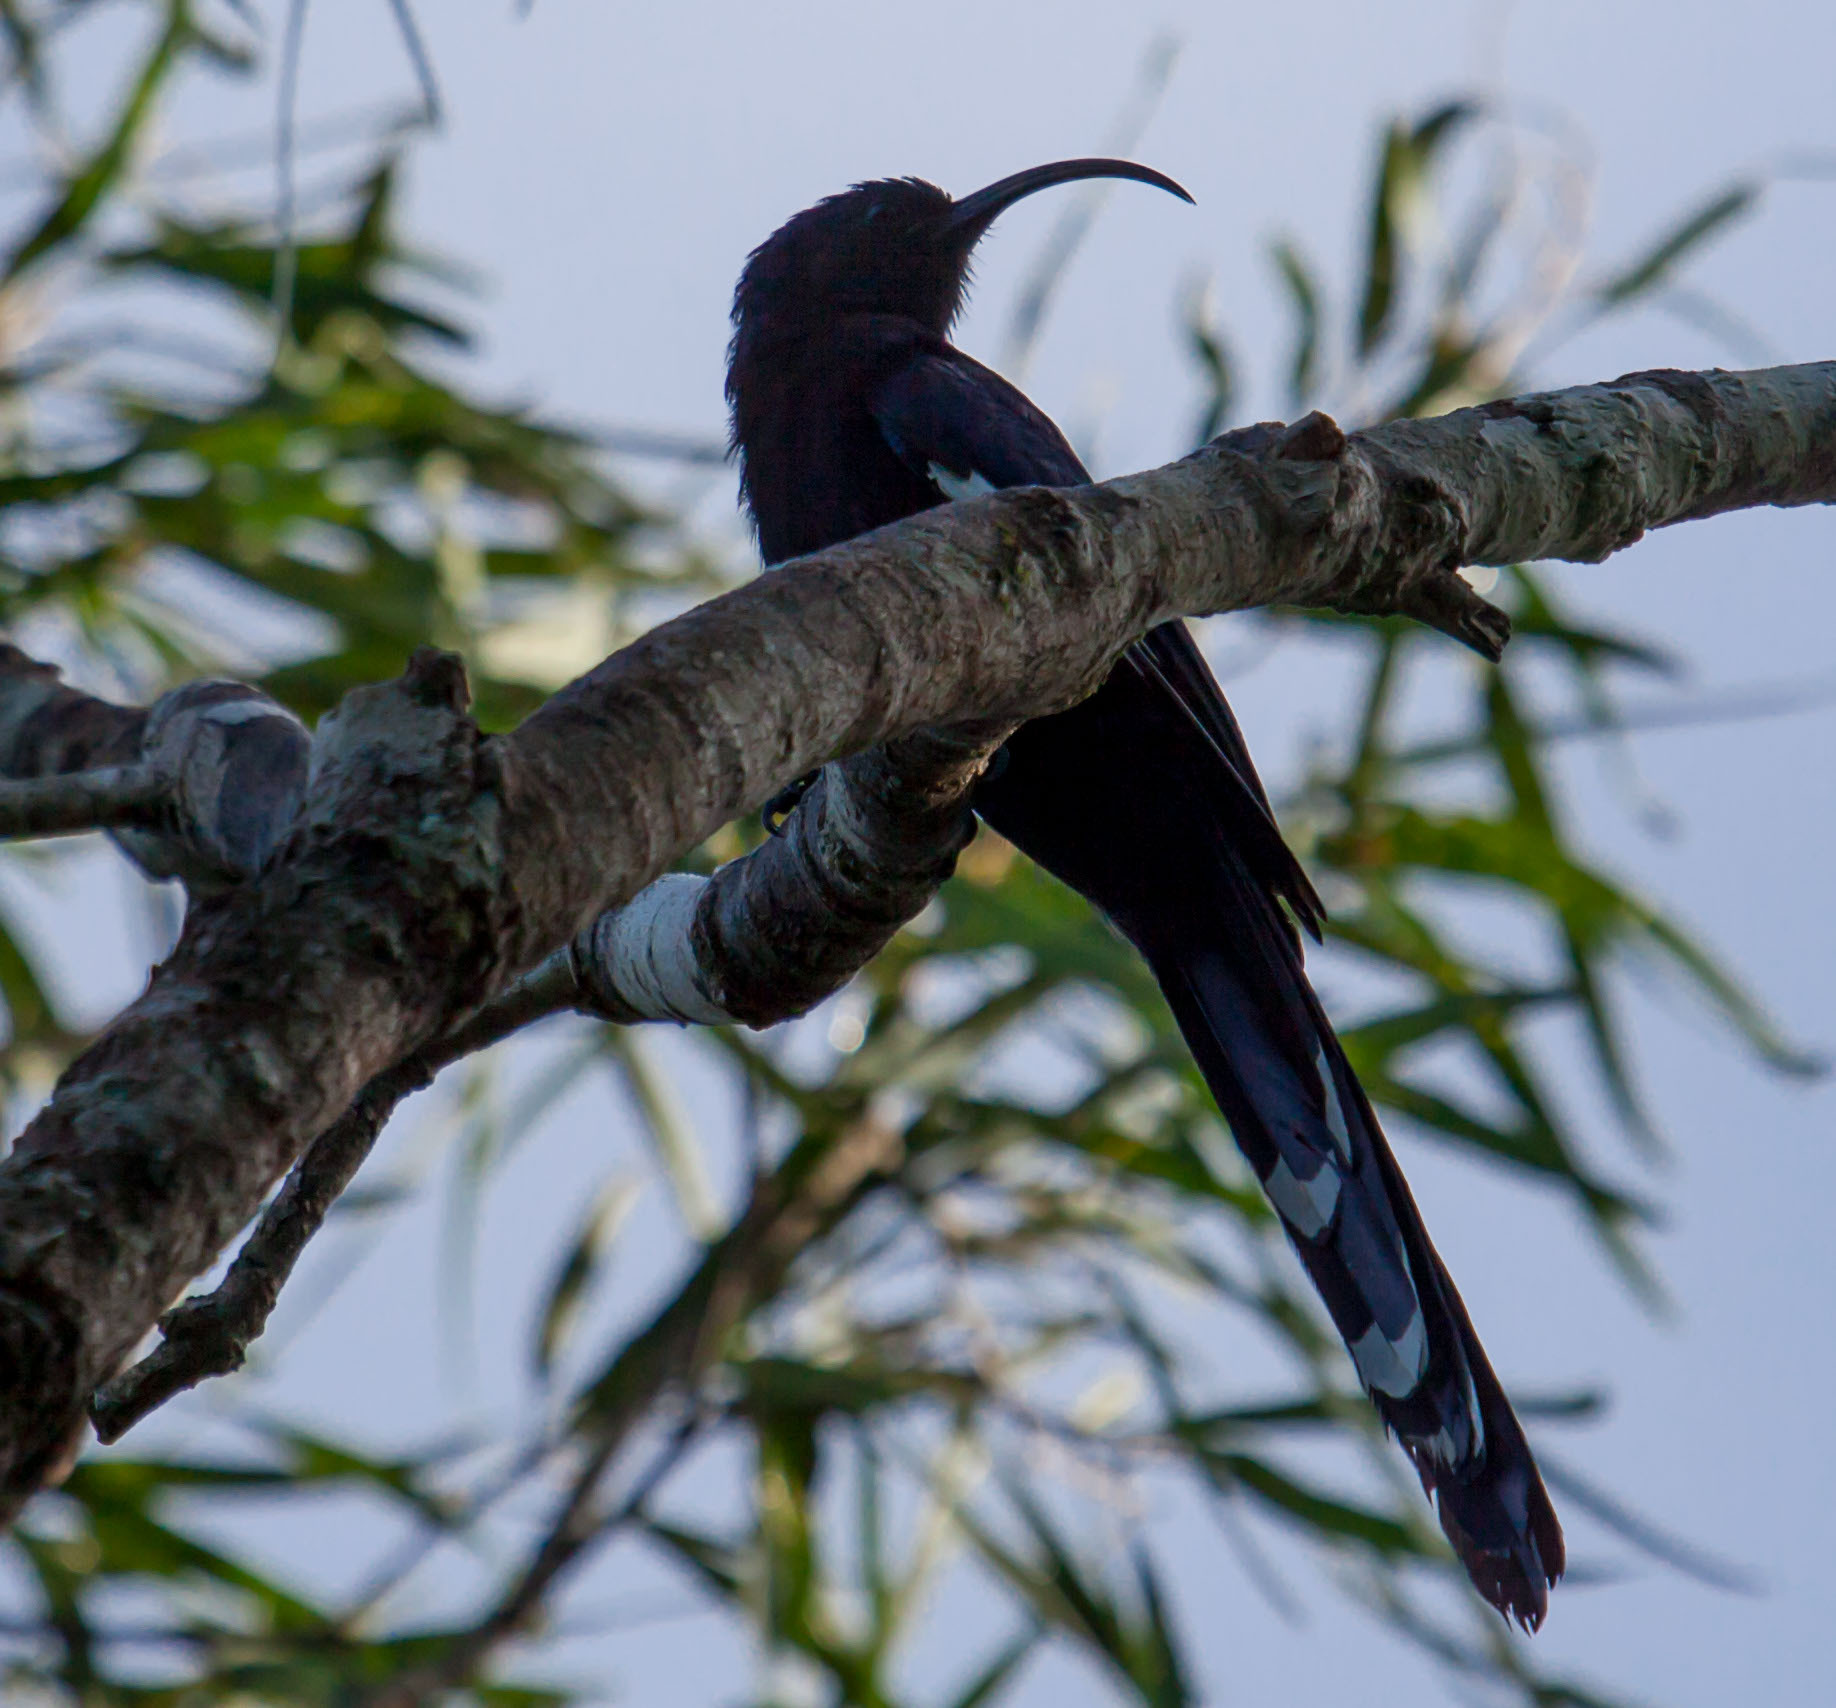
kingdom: Animalia
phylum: Chordata
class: Aves
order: Bucerotiformes
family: Phoeniculidae
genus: Rhinopomastus
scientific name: Rhinopomastus cyanomelas
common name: Common scimitarbill
